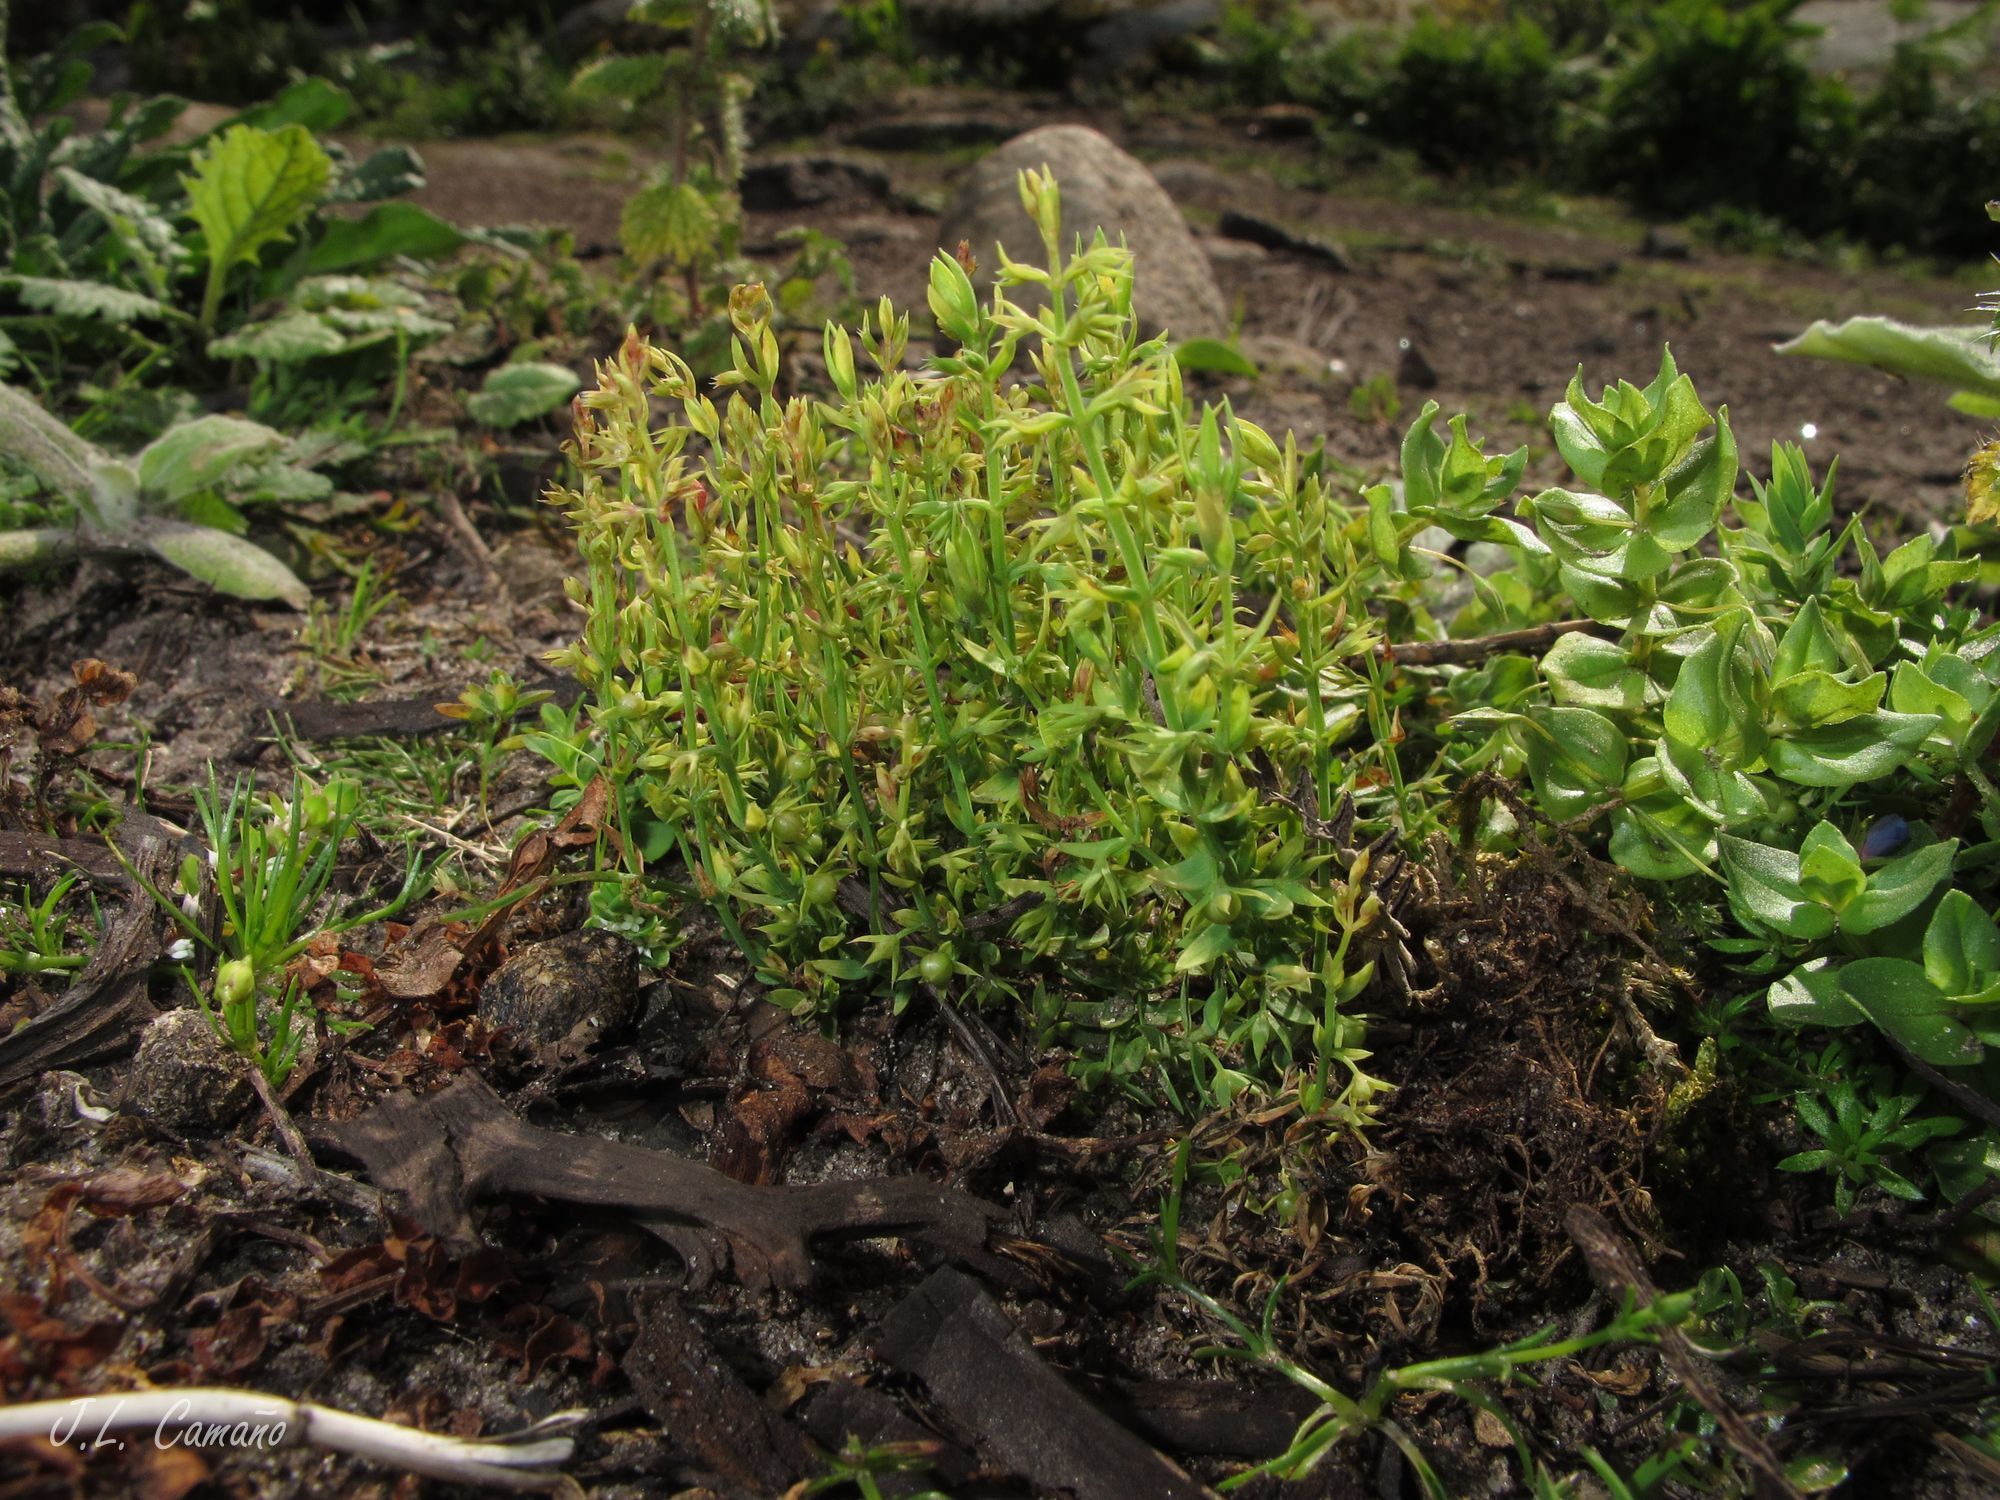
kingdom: Plantae
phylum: Tracheophyta
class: Magnoliopsida
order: Ericales
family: Primulaceae
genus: Lysimachia
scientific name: Lysimachia linum-stellatum
